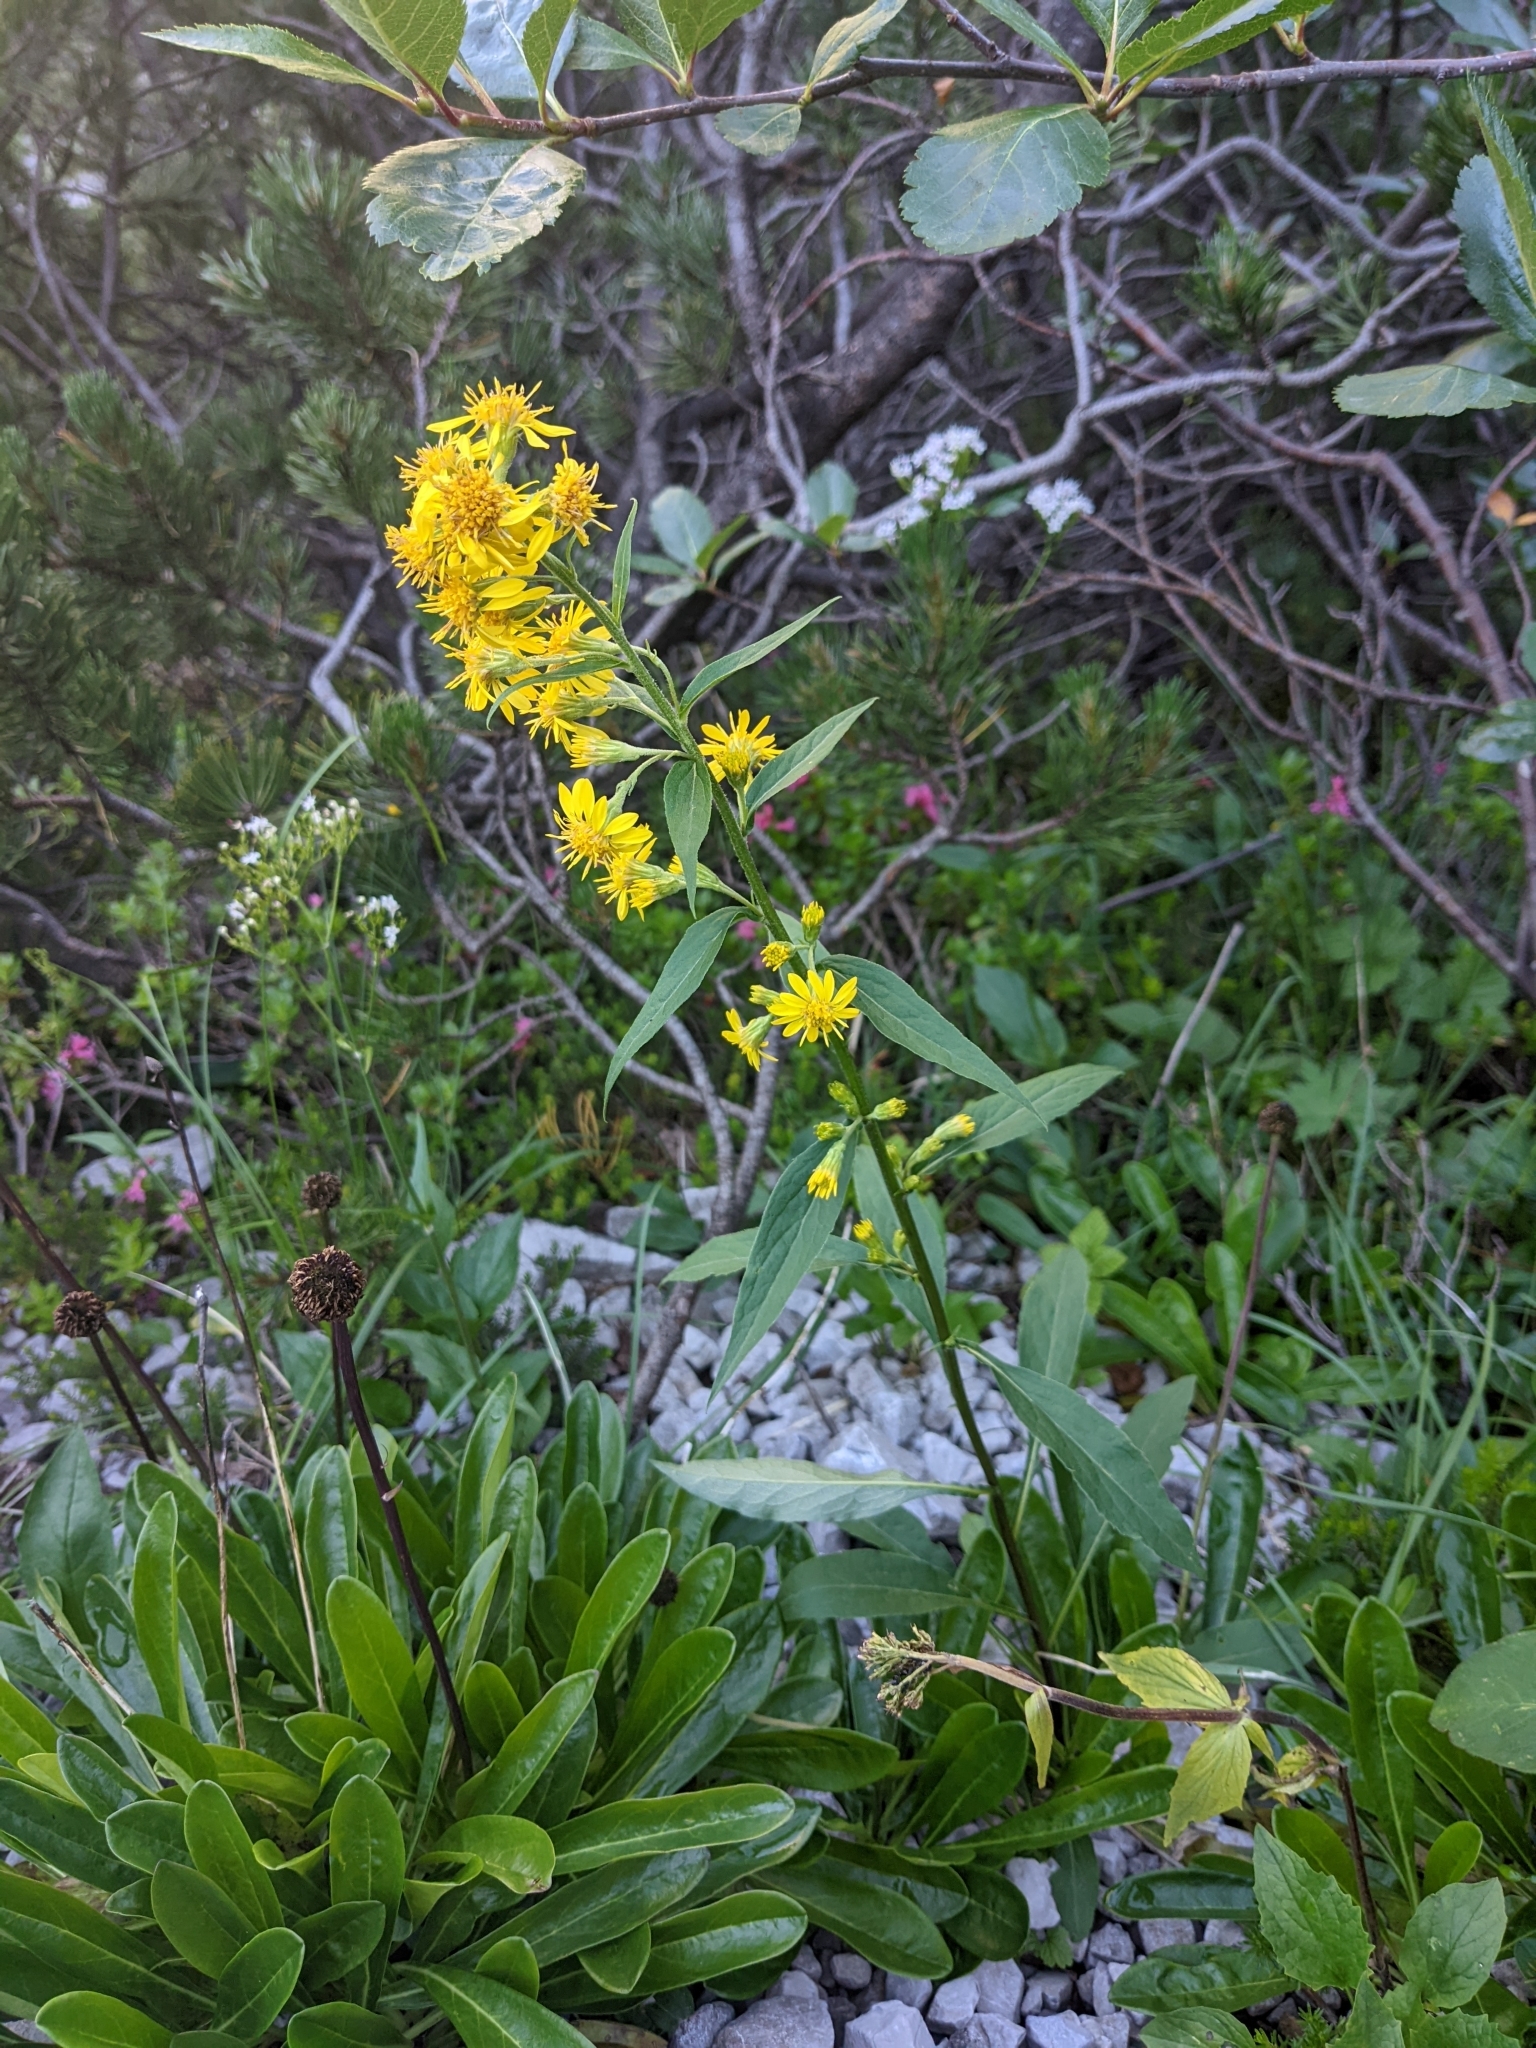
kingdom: Plantae
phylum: Tracheophyta
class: Magnoliopsida
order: Asterales
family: Asteraceae
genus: Solidago
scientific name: Solidago virgaurea
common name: Goldenrod
